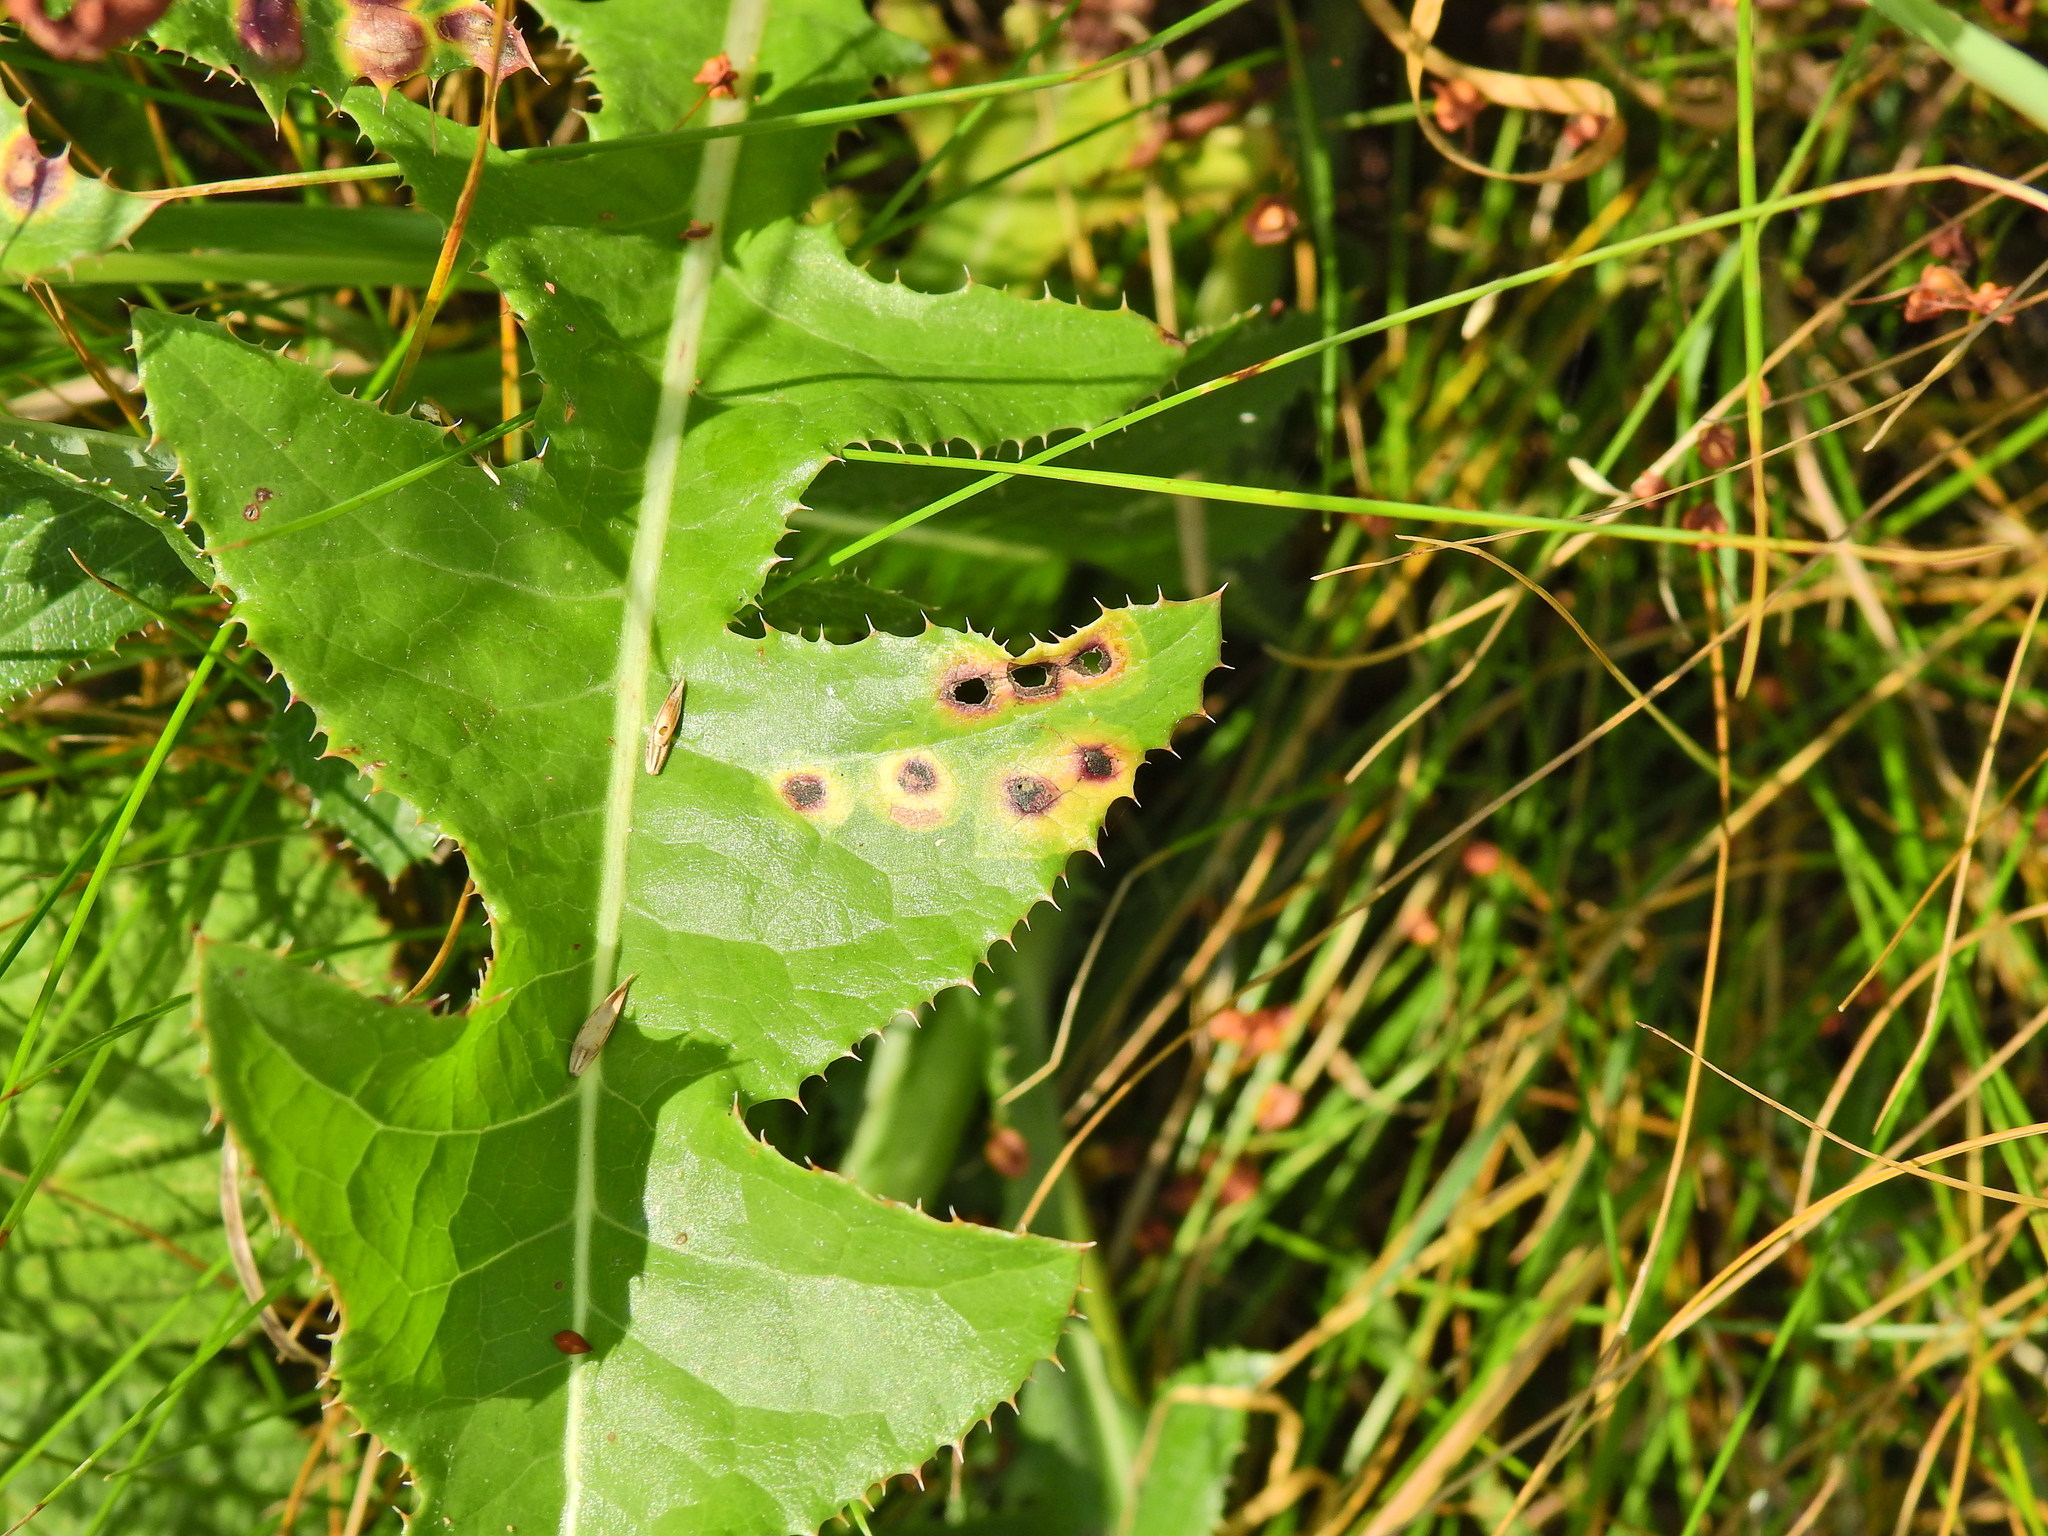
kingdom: Animalia
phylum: Arthropoda
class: Insecta
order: Diptera
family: Cecidomyiidae
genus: Cystiphora
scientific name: Cystiphora sonchi
